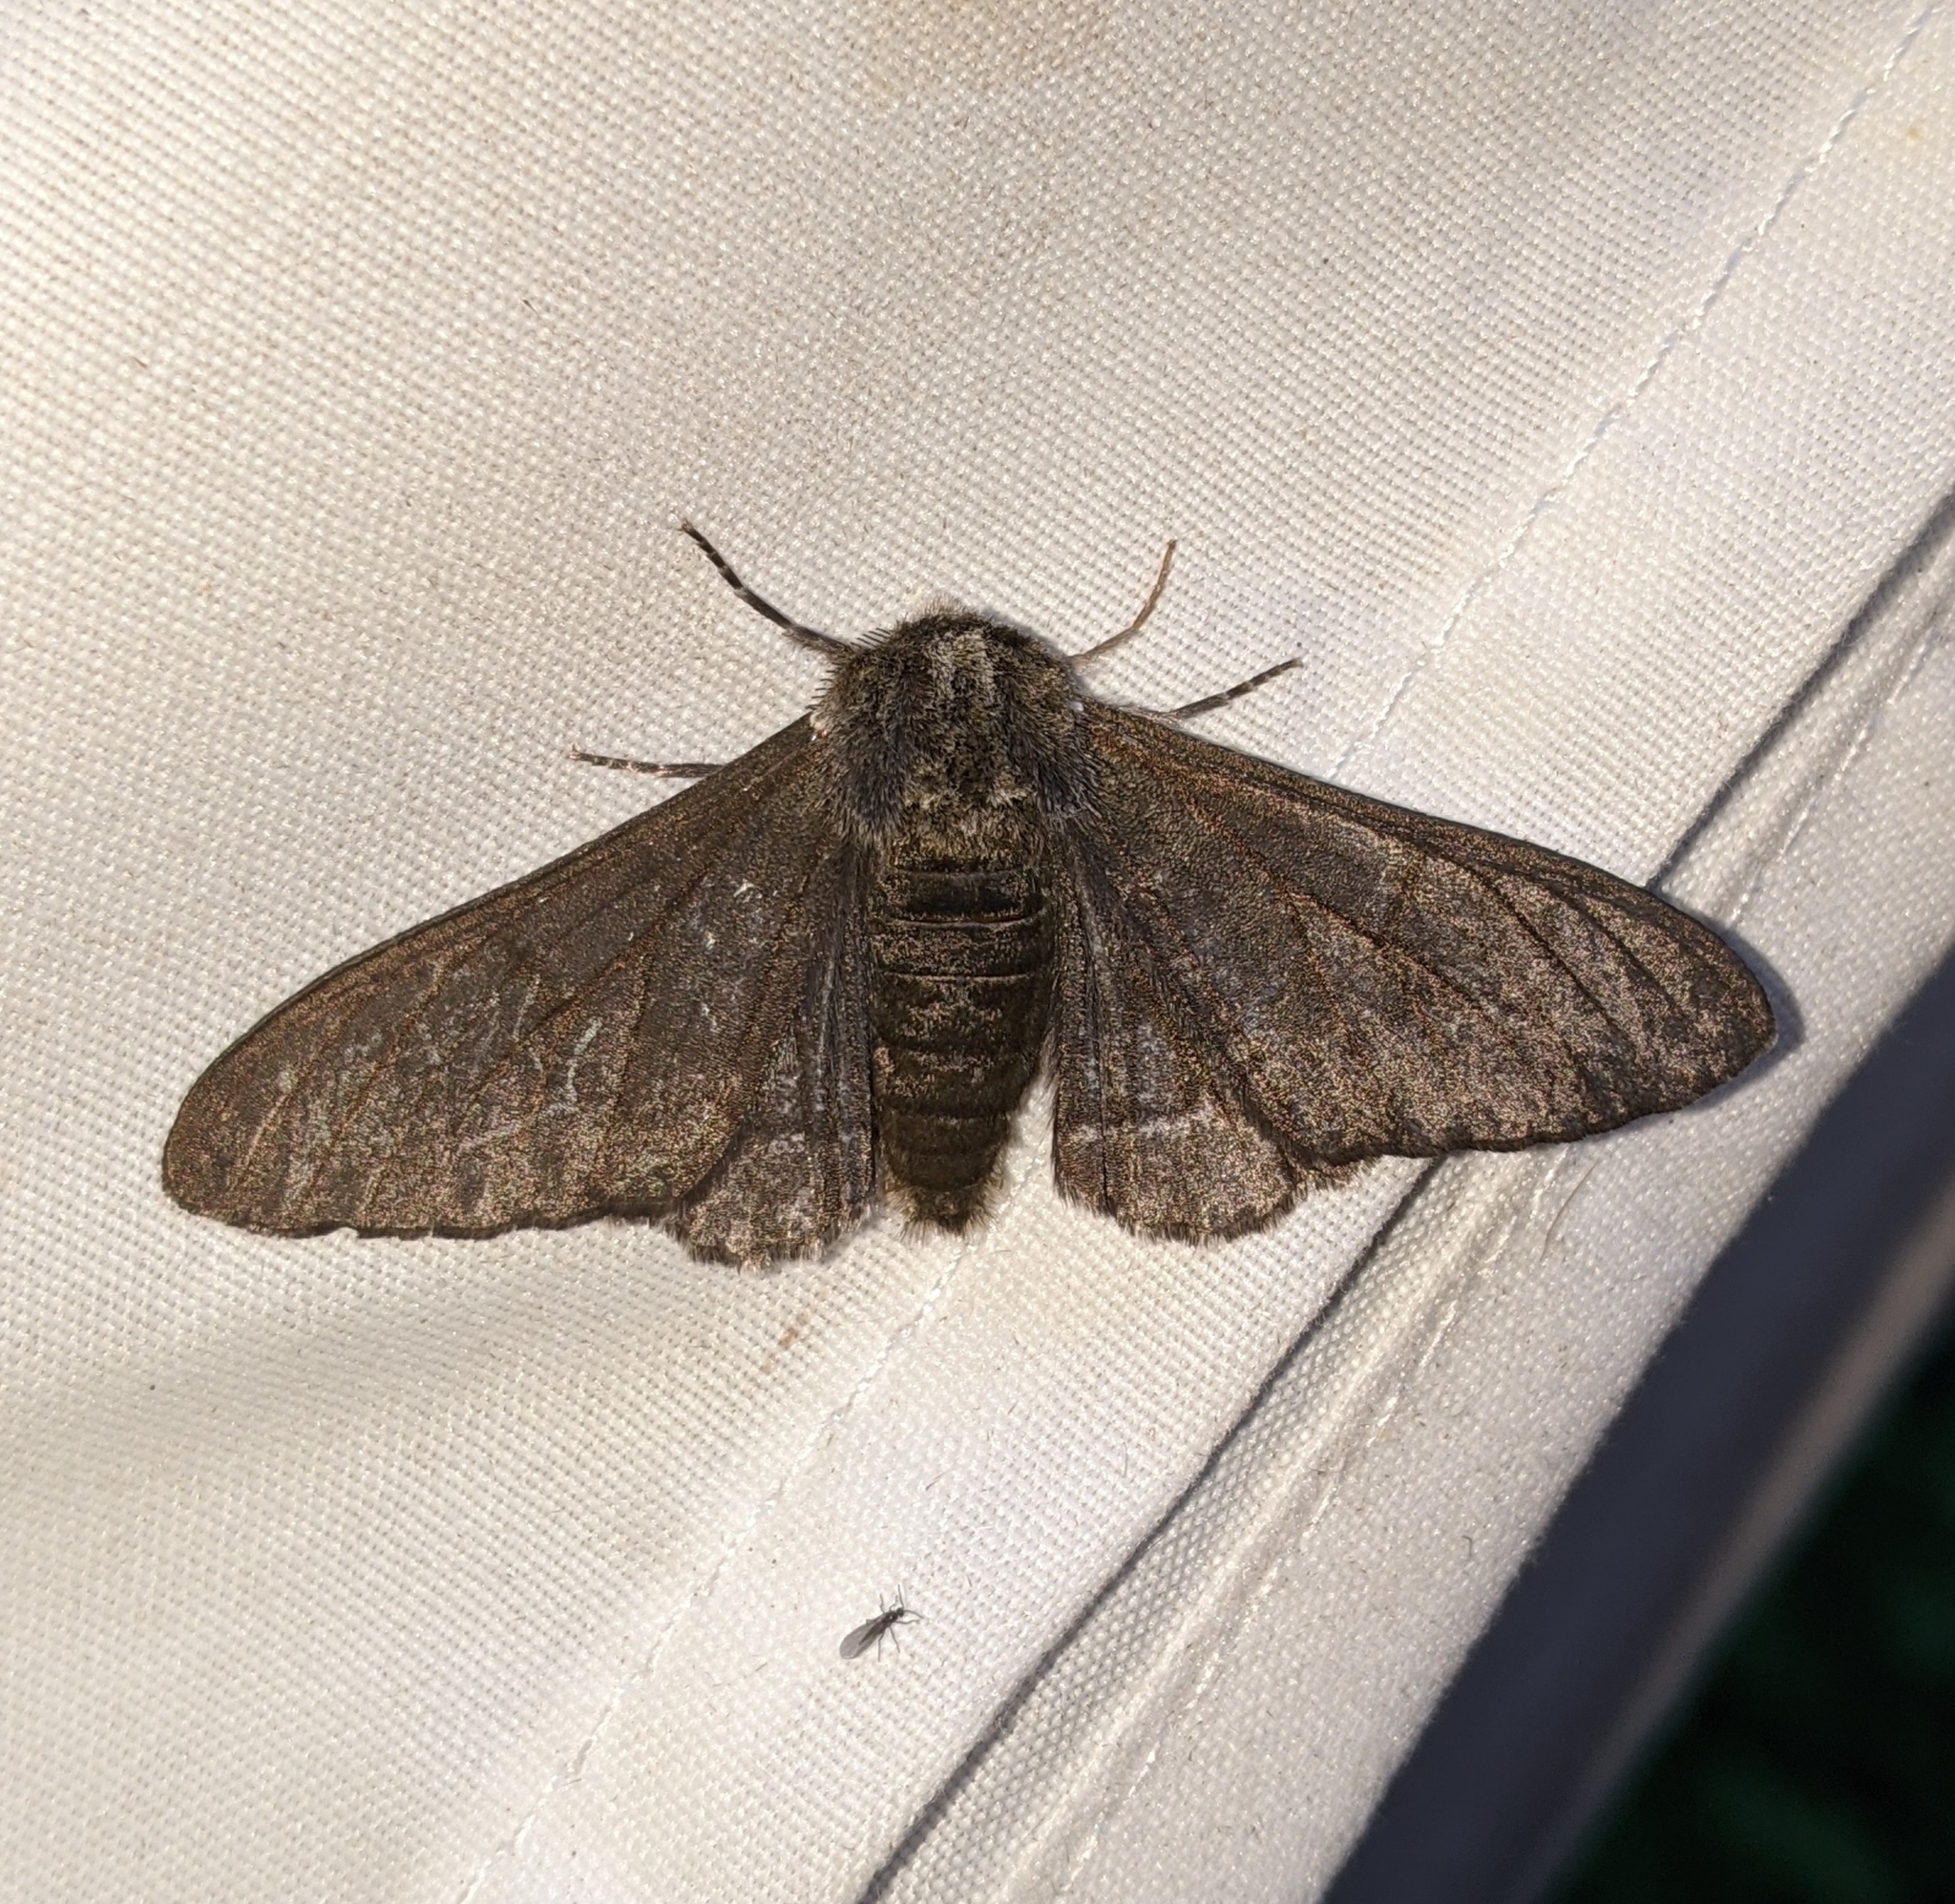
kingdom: Animalia
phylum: Arthropoda
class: Insecta
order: Lepidoptera
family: Geometridae
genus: Biston
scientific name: Biston betularia
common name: Peppered moth
